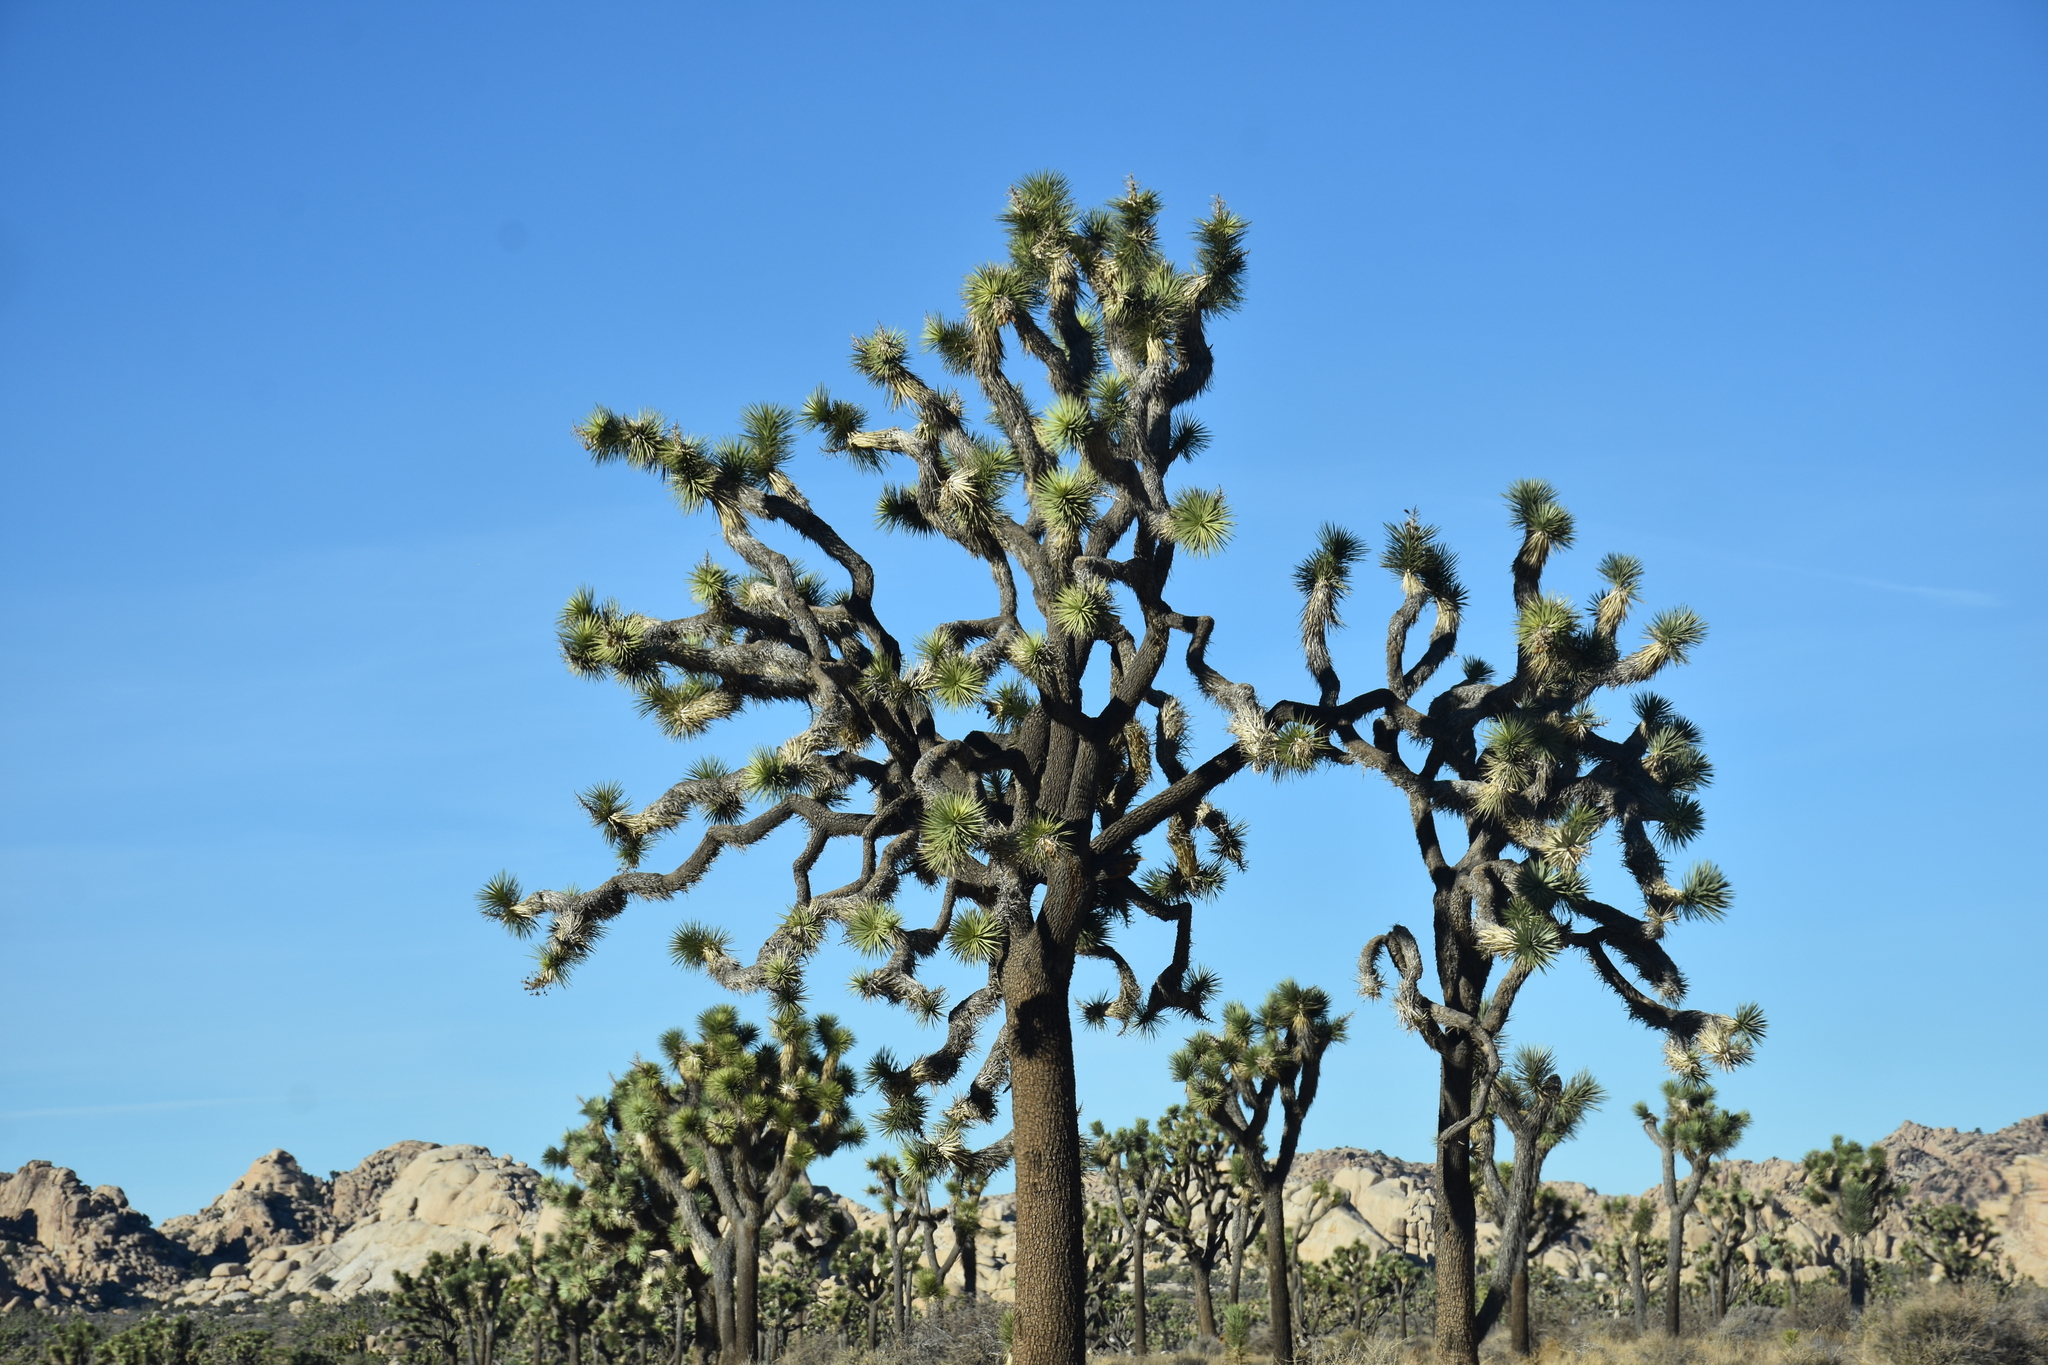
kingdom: Plantae
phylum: Tracheophyta
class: Liliopsida
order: Asparagales
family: Asparagaceae
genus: Yucca
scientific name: Yucca brevifolia
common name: Joshua tree
